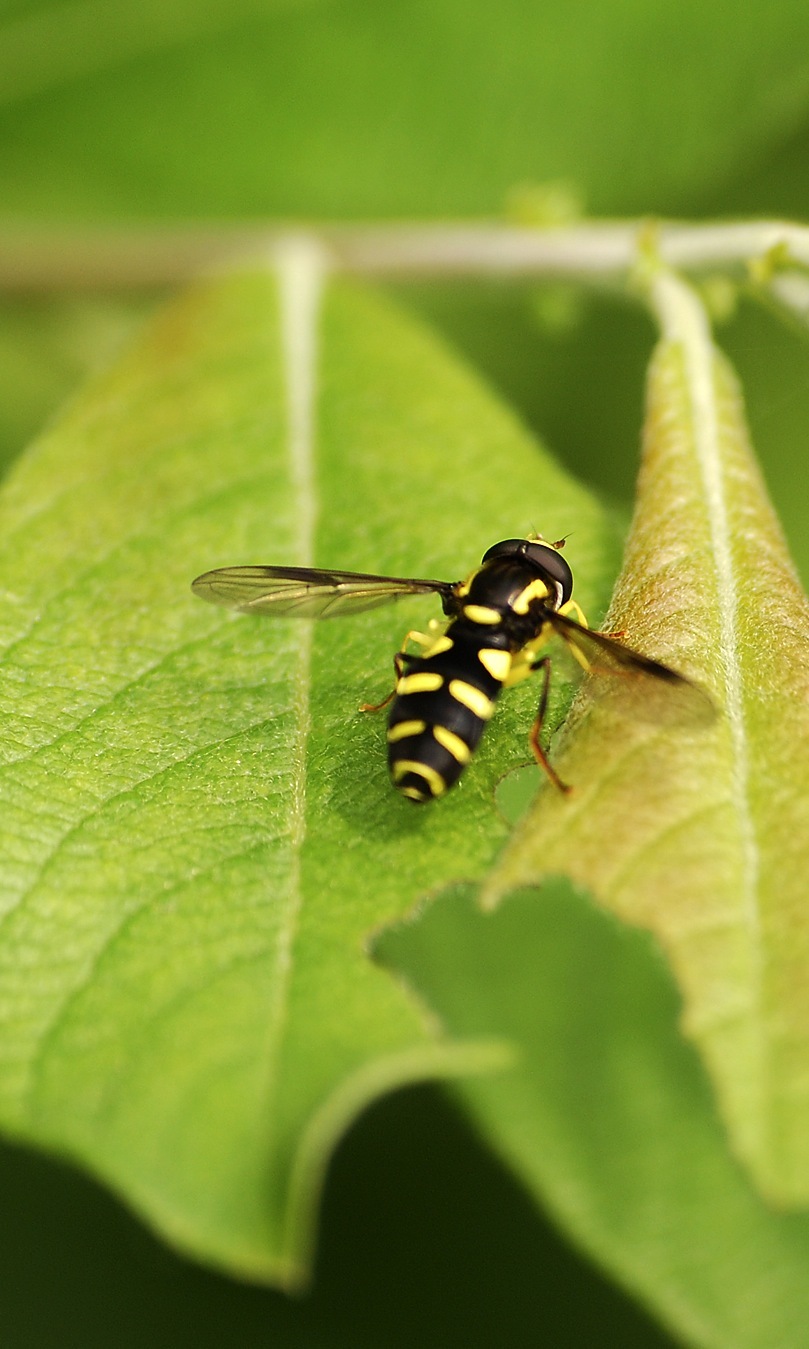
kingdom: Animalia
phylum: Arthropoda
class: Insecta
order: Diptera
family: Syrphidae
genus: Philhelius
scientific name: Philhelius pedissequum
